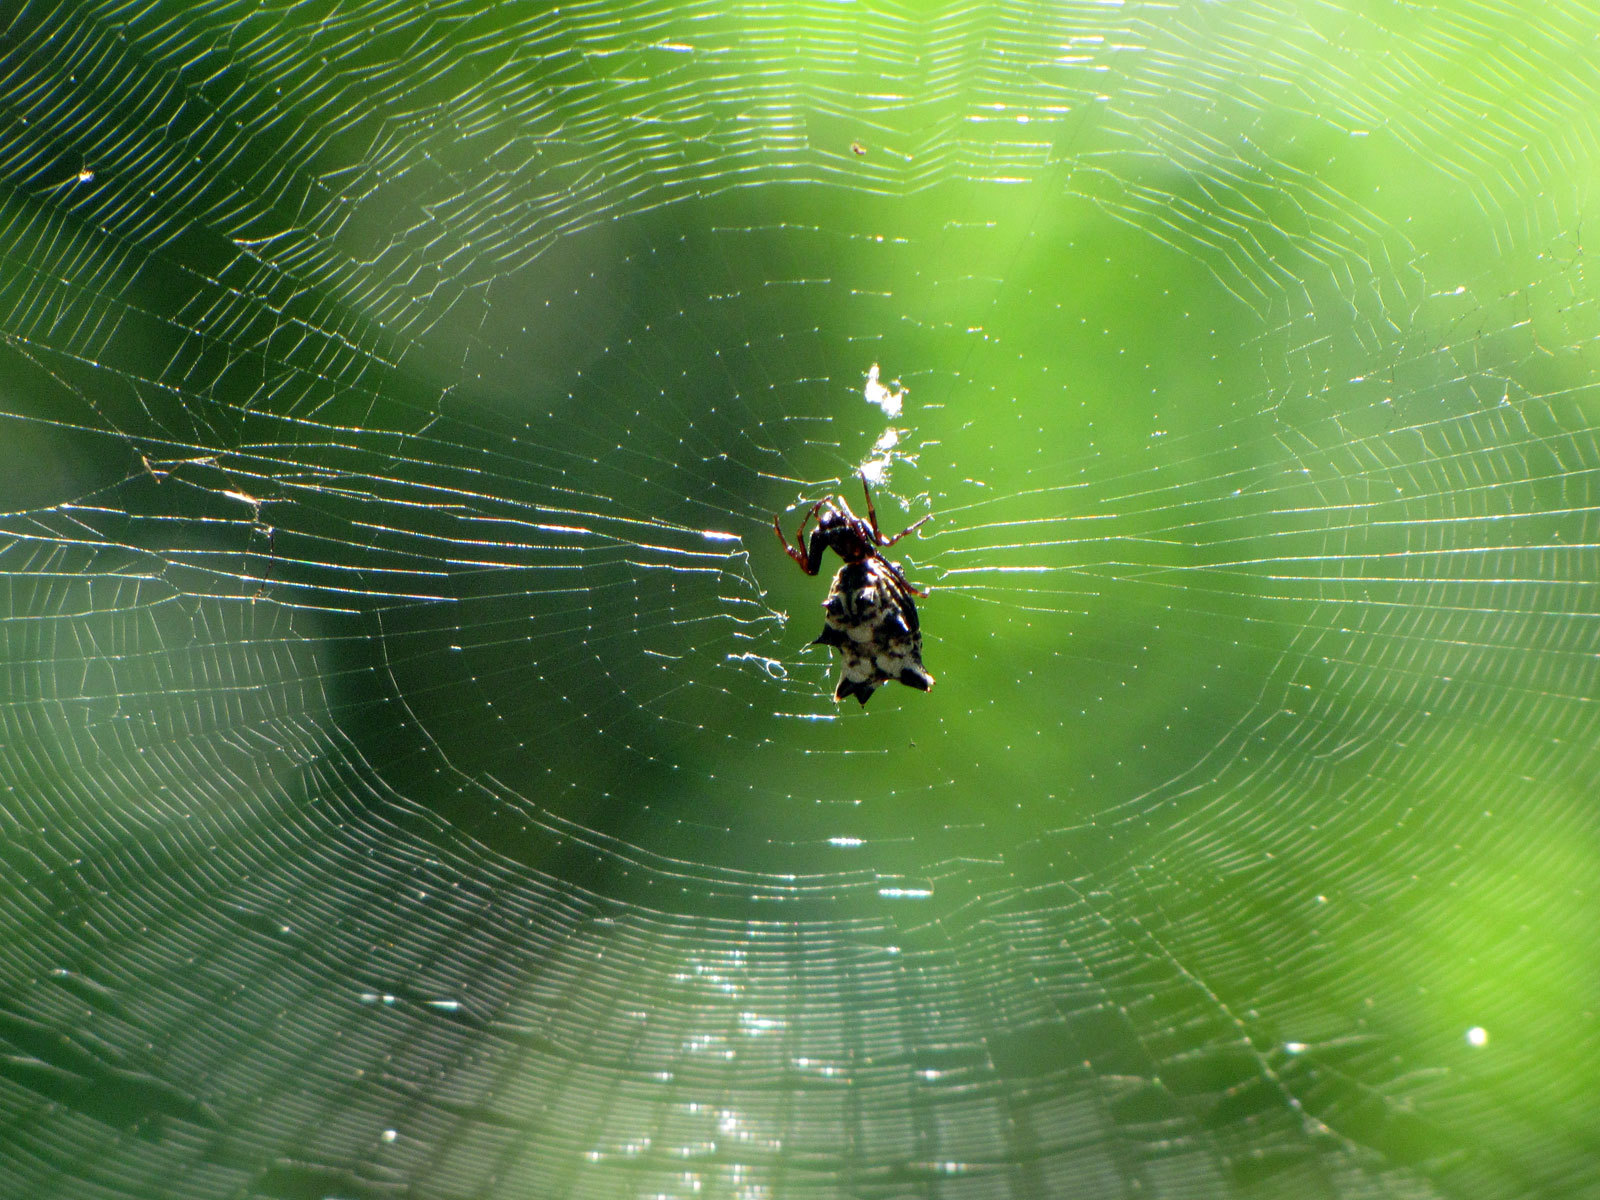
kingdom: Animalia
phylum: Arthropoda
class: Arachnida
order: Araneae
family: Araneidae
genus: Micrathena
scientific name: Micrathena gracilis
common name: Orb weavers
